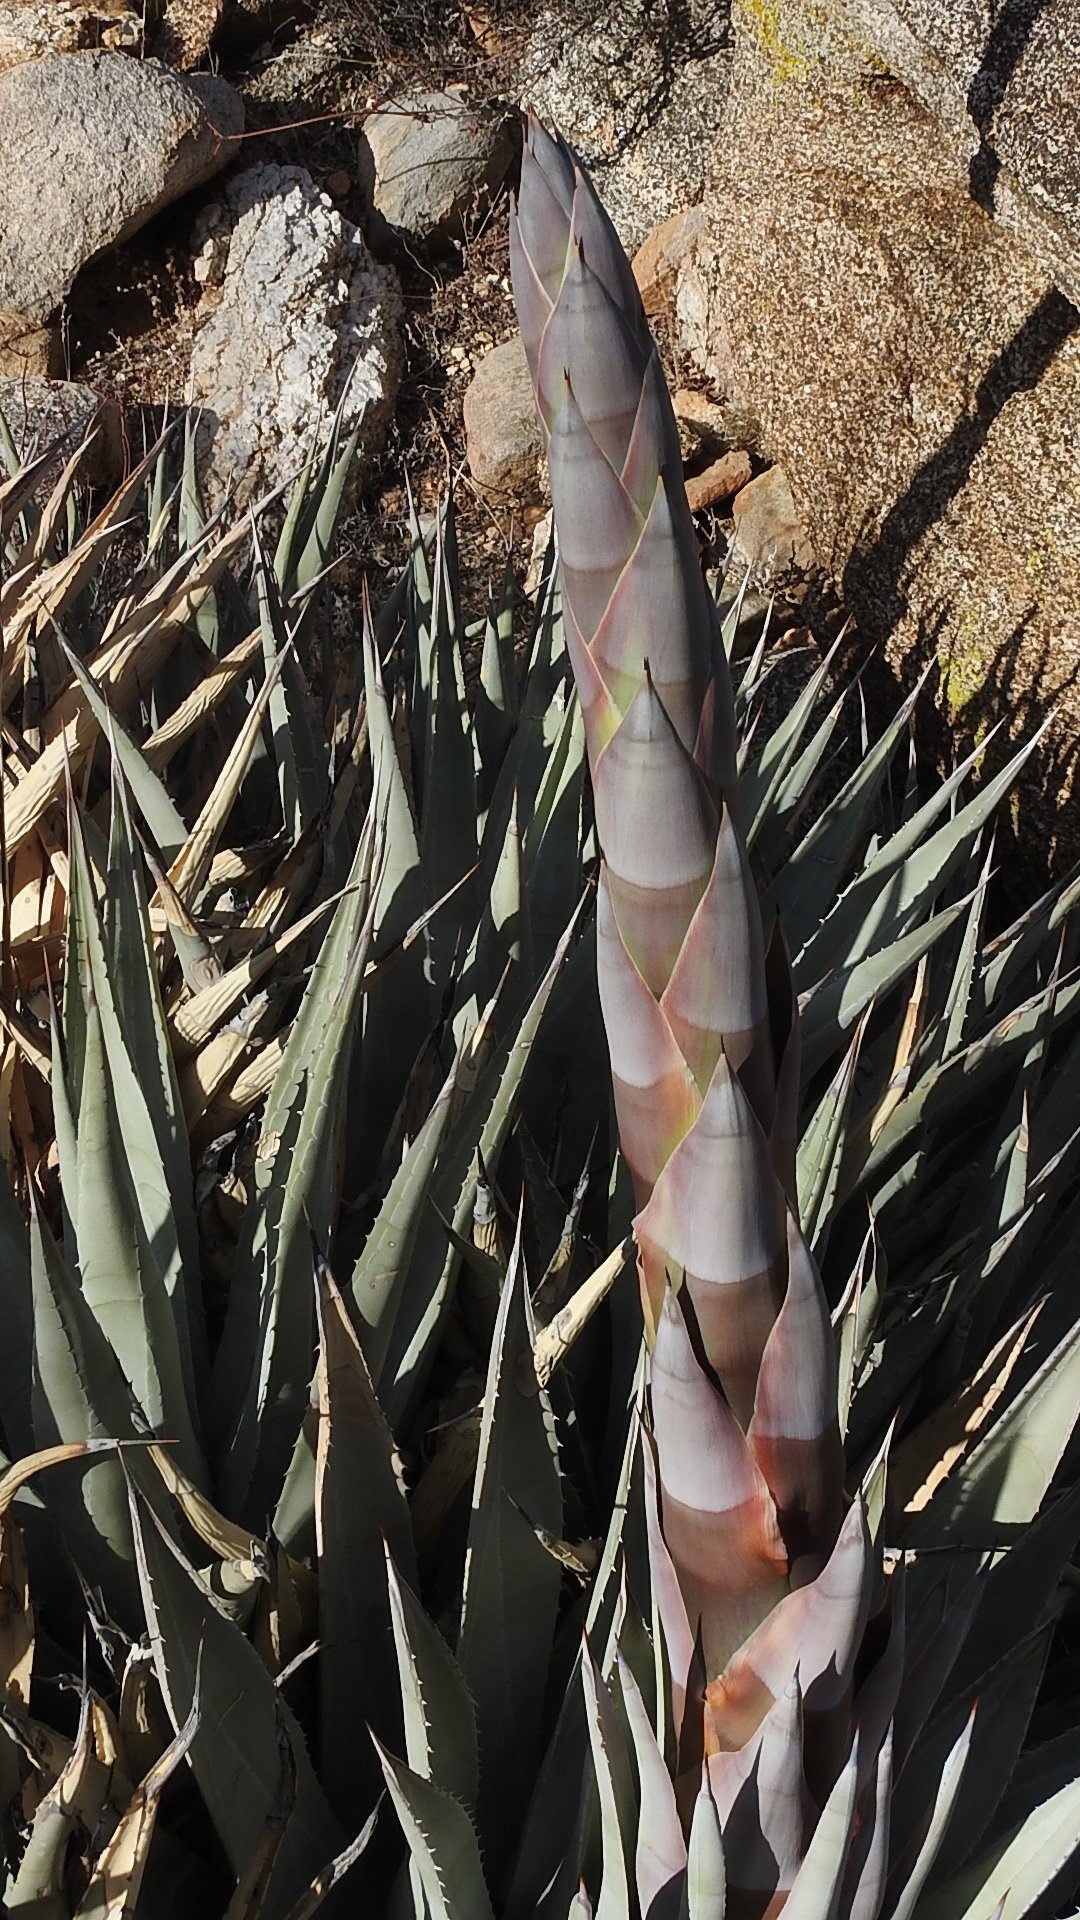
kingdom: Plantae
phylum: Tracheophyta
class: Liliopsida
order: Asparagales
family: Asparagaceae
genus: Agave
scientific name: Agave deserti
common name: Desert agave
